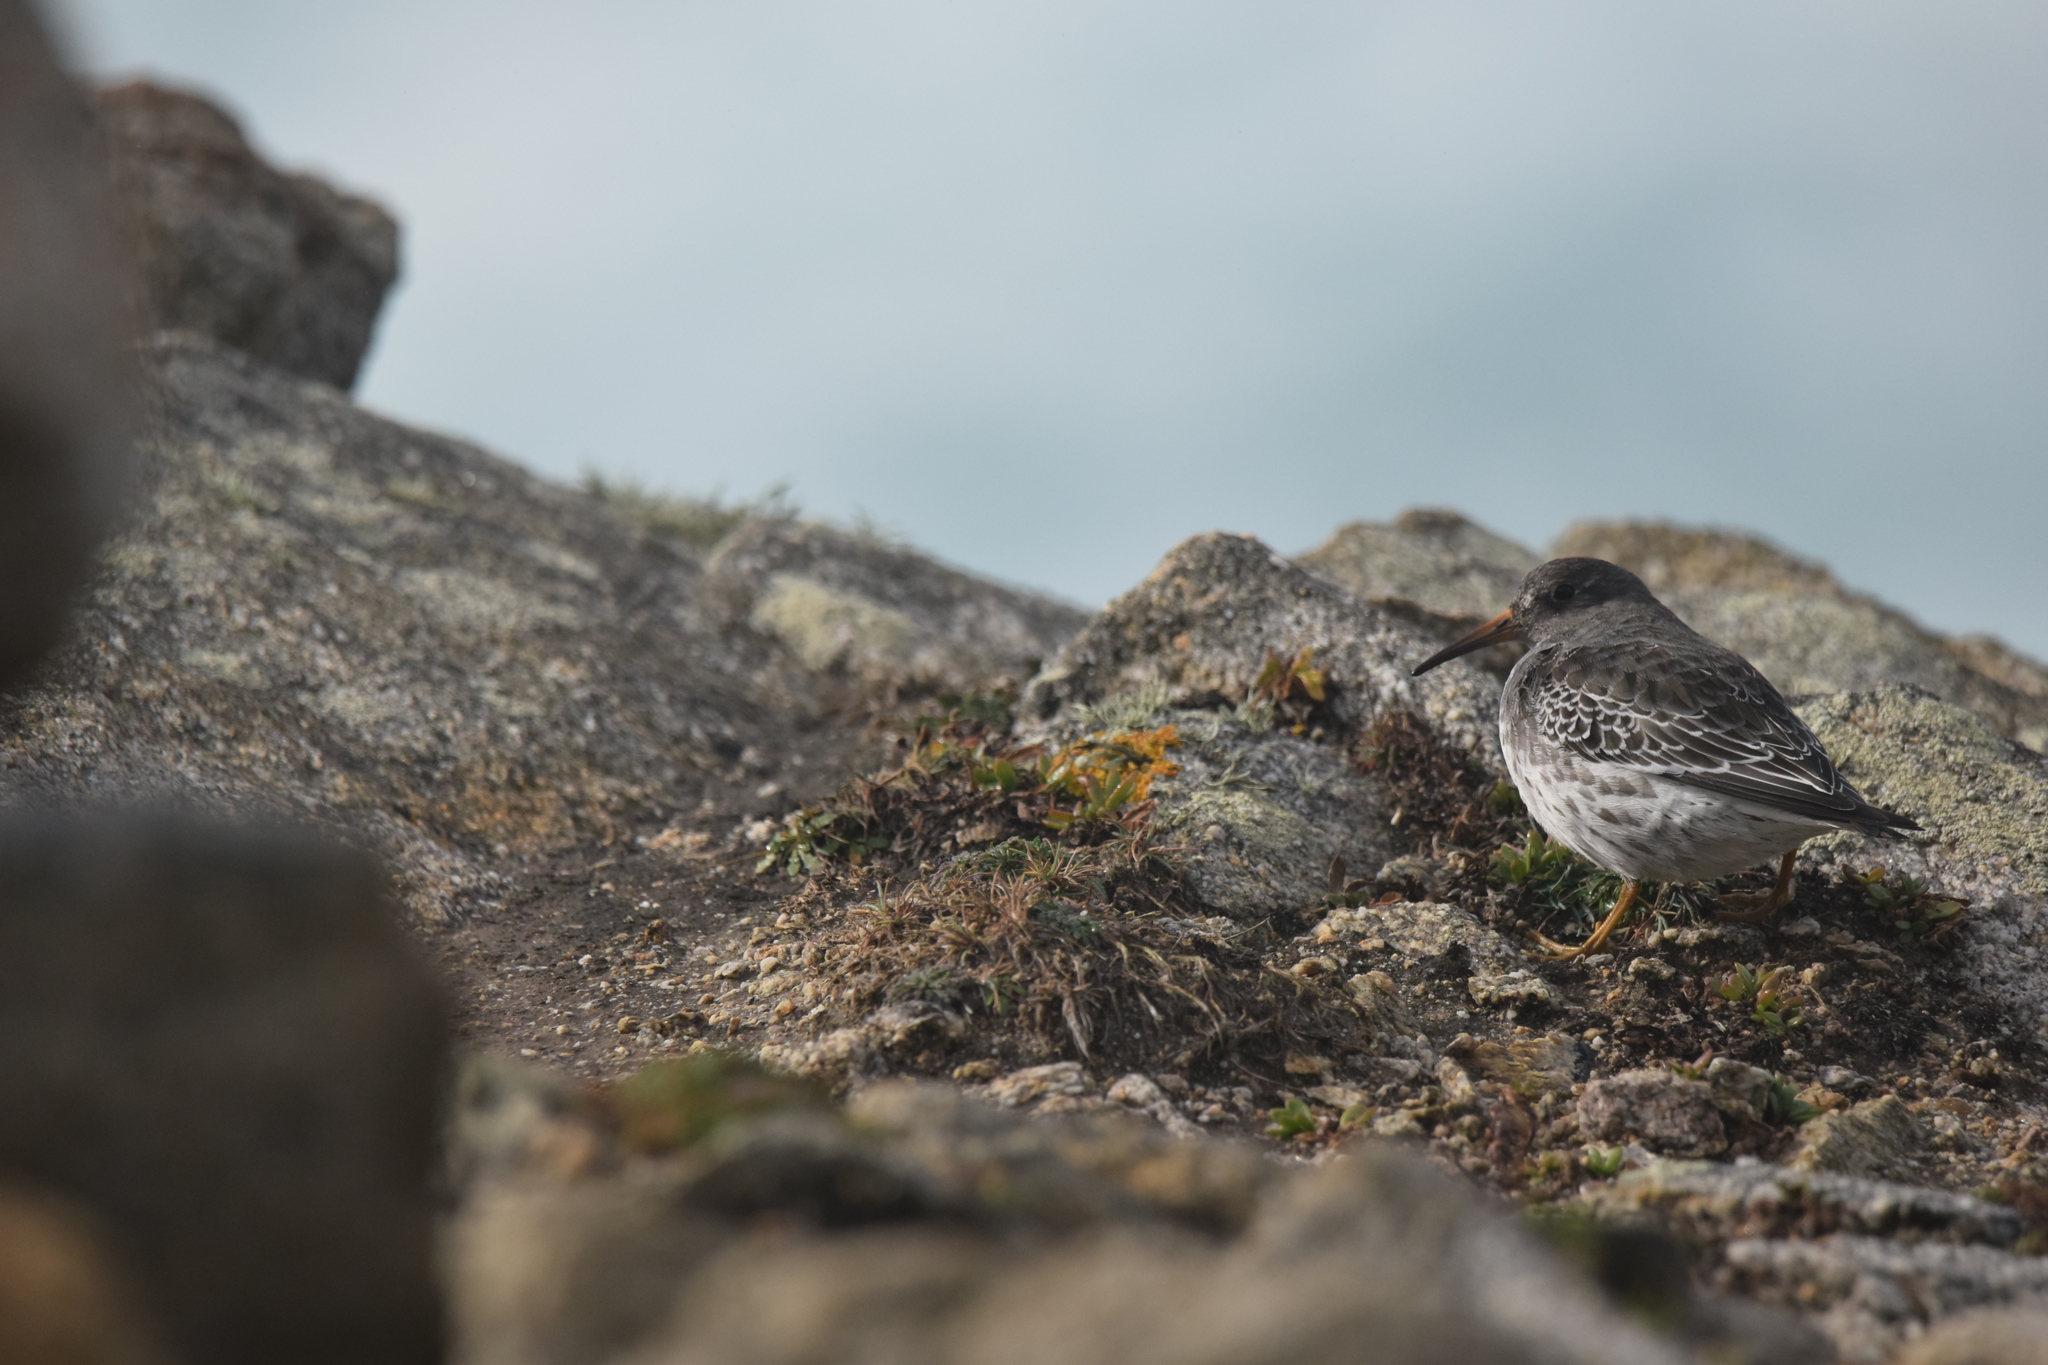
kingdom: Animalia
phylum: Chordata
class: Aves
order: Charadriiformes
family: Scolopacidae
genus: Calidris
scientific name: Calidris maritima
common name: Purple sandpiper
